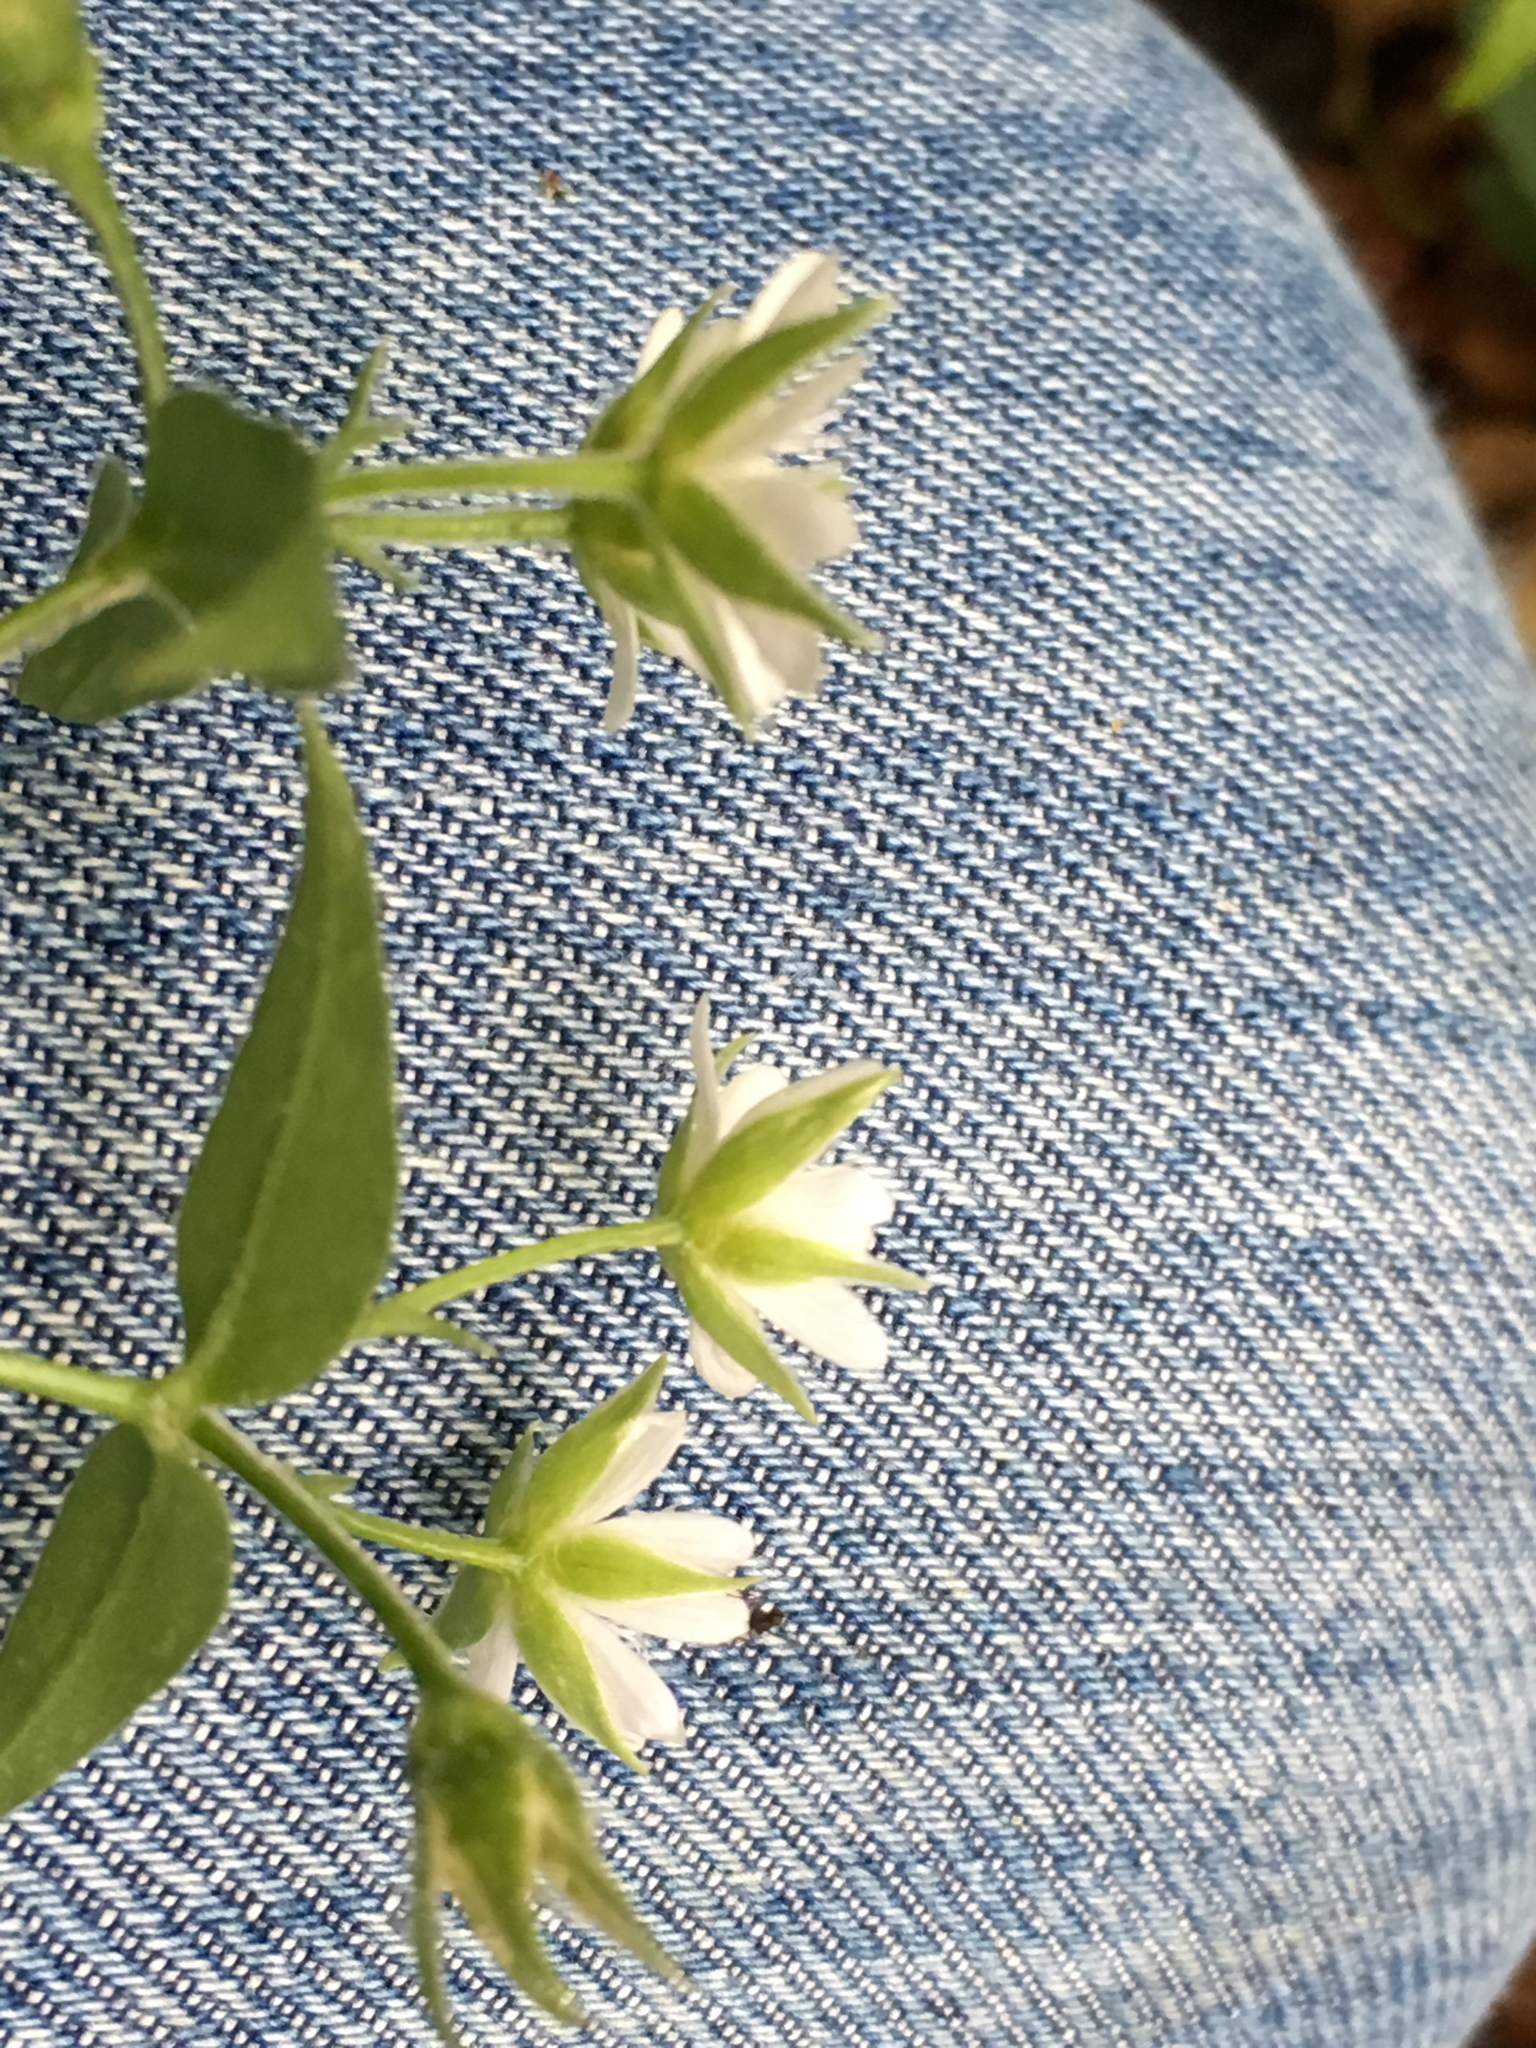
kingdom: Plantae
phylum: Tracheophyta
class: Magnoliopsida
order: Caryophyllales
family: Caryophyllaceae
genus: Stellaria
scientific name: Stellaria corei
